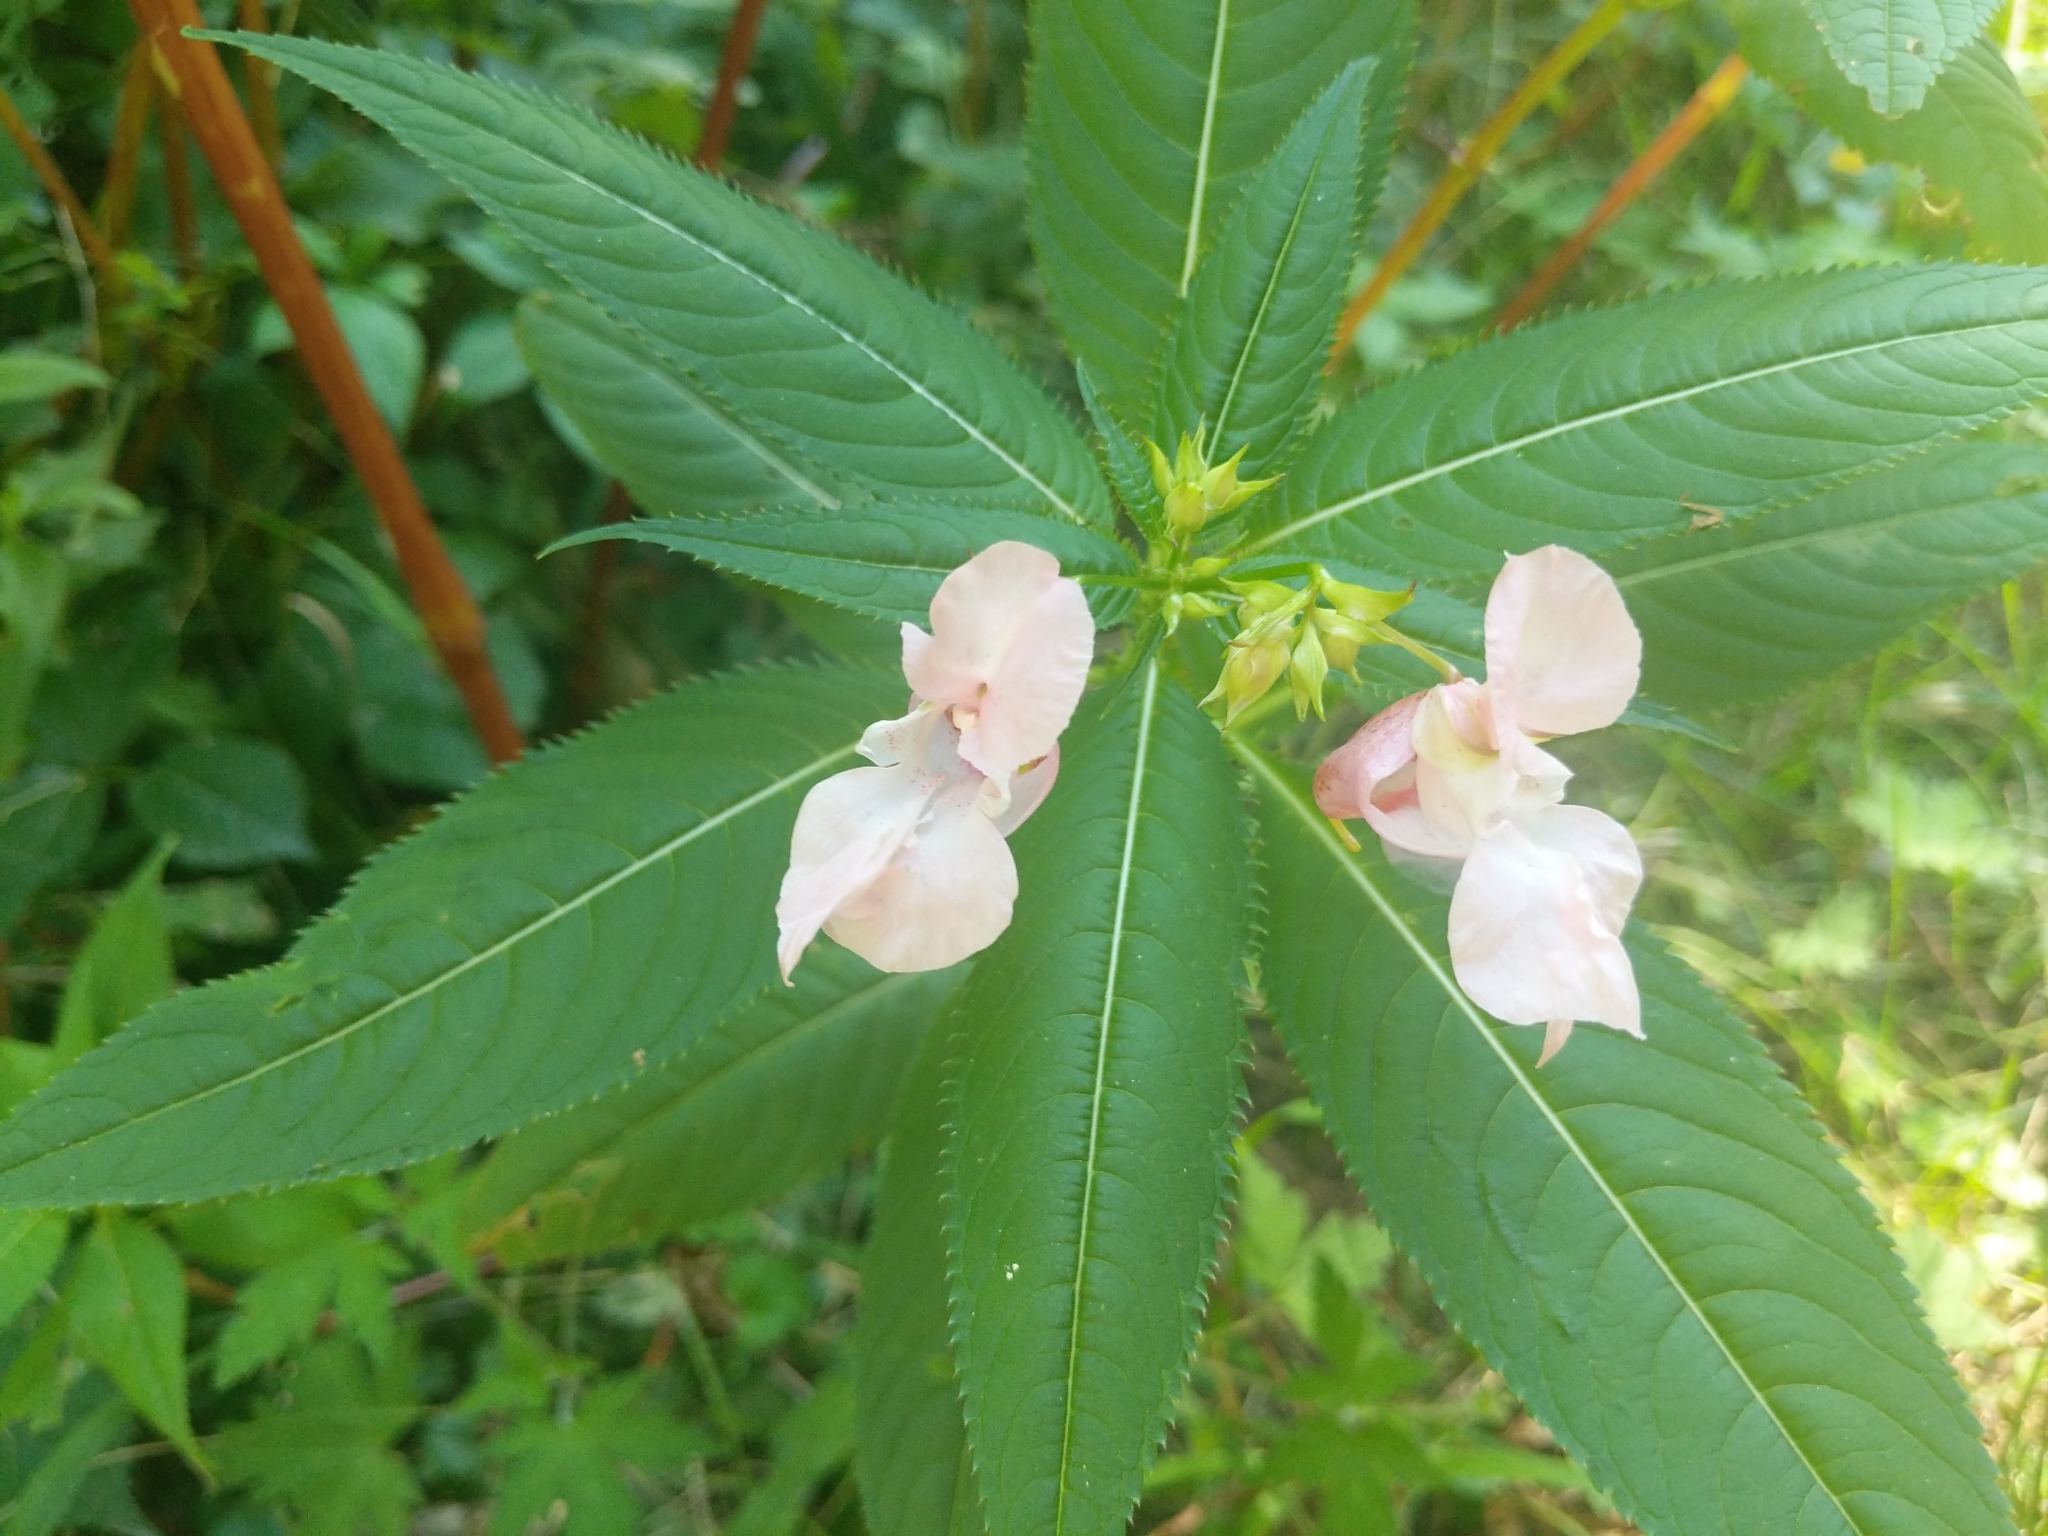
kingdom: Plantae
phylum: Tracheophyta
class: Magnoliopsida
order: Ericales
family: Balsaminaceae
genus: Impatiens
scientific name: Impatiens glandulifera
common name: Himalayan balsam
